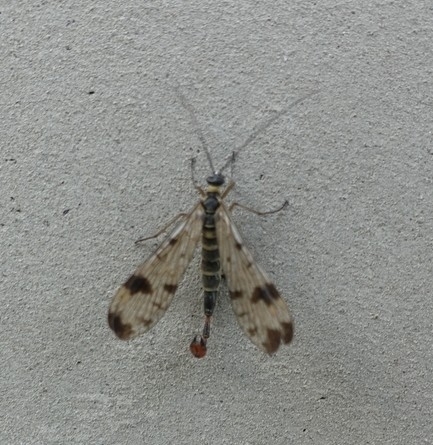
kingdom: Animalia
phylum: Arthropoda
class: Insecta
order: Mecoptera
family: Panorpidae
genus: Panorpa
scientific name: Panorpa caucasica
